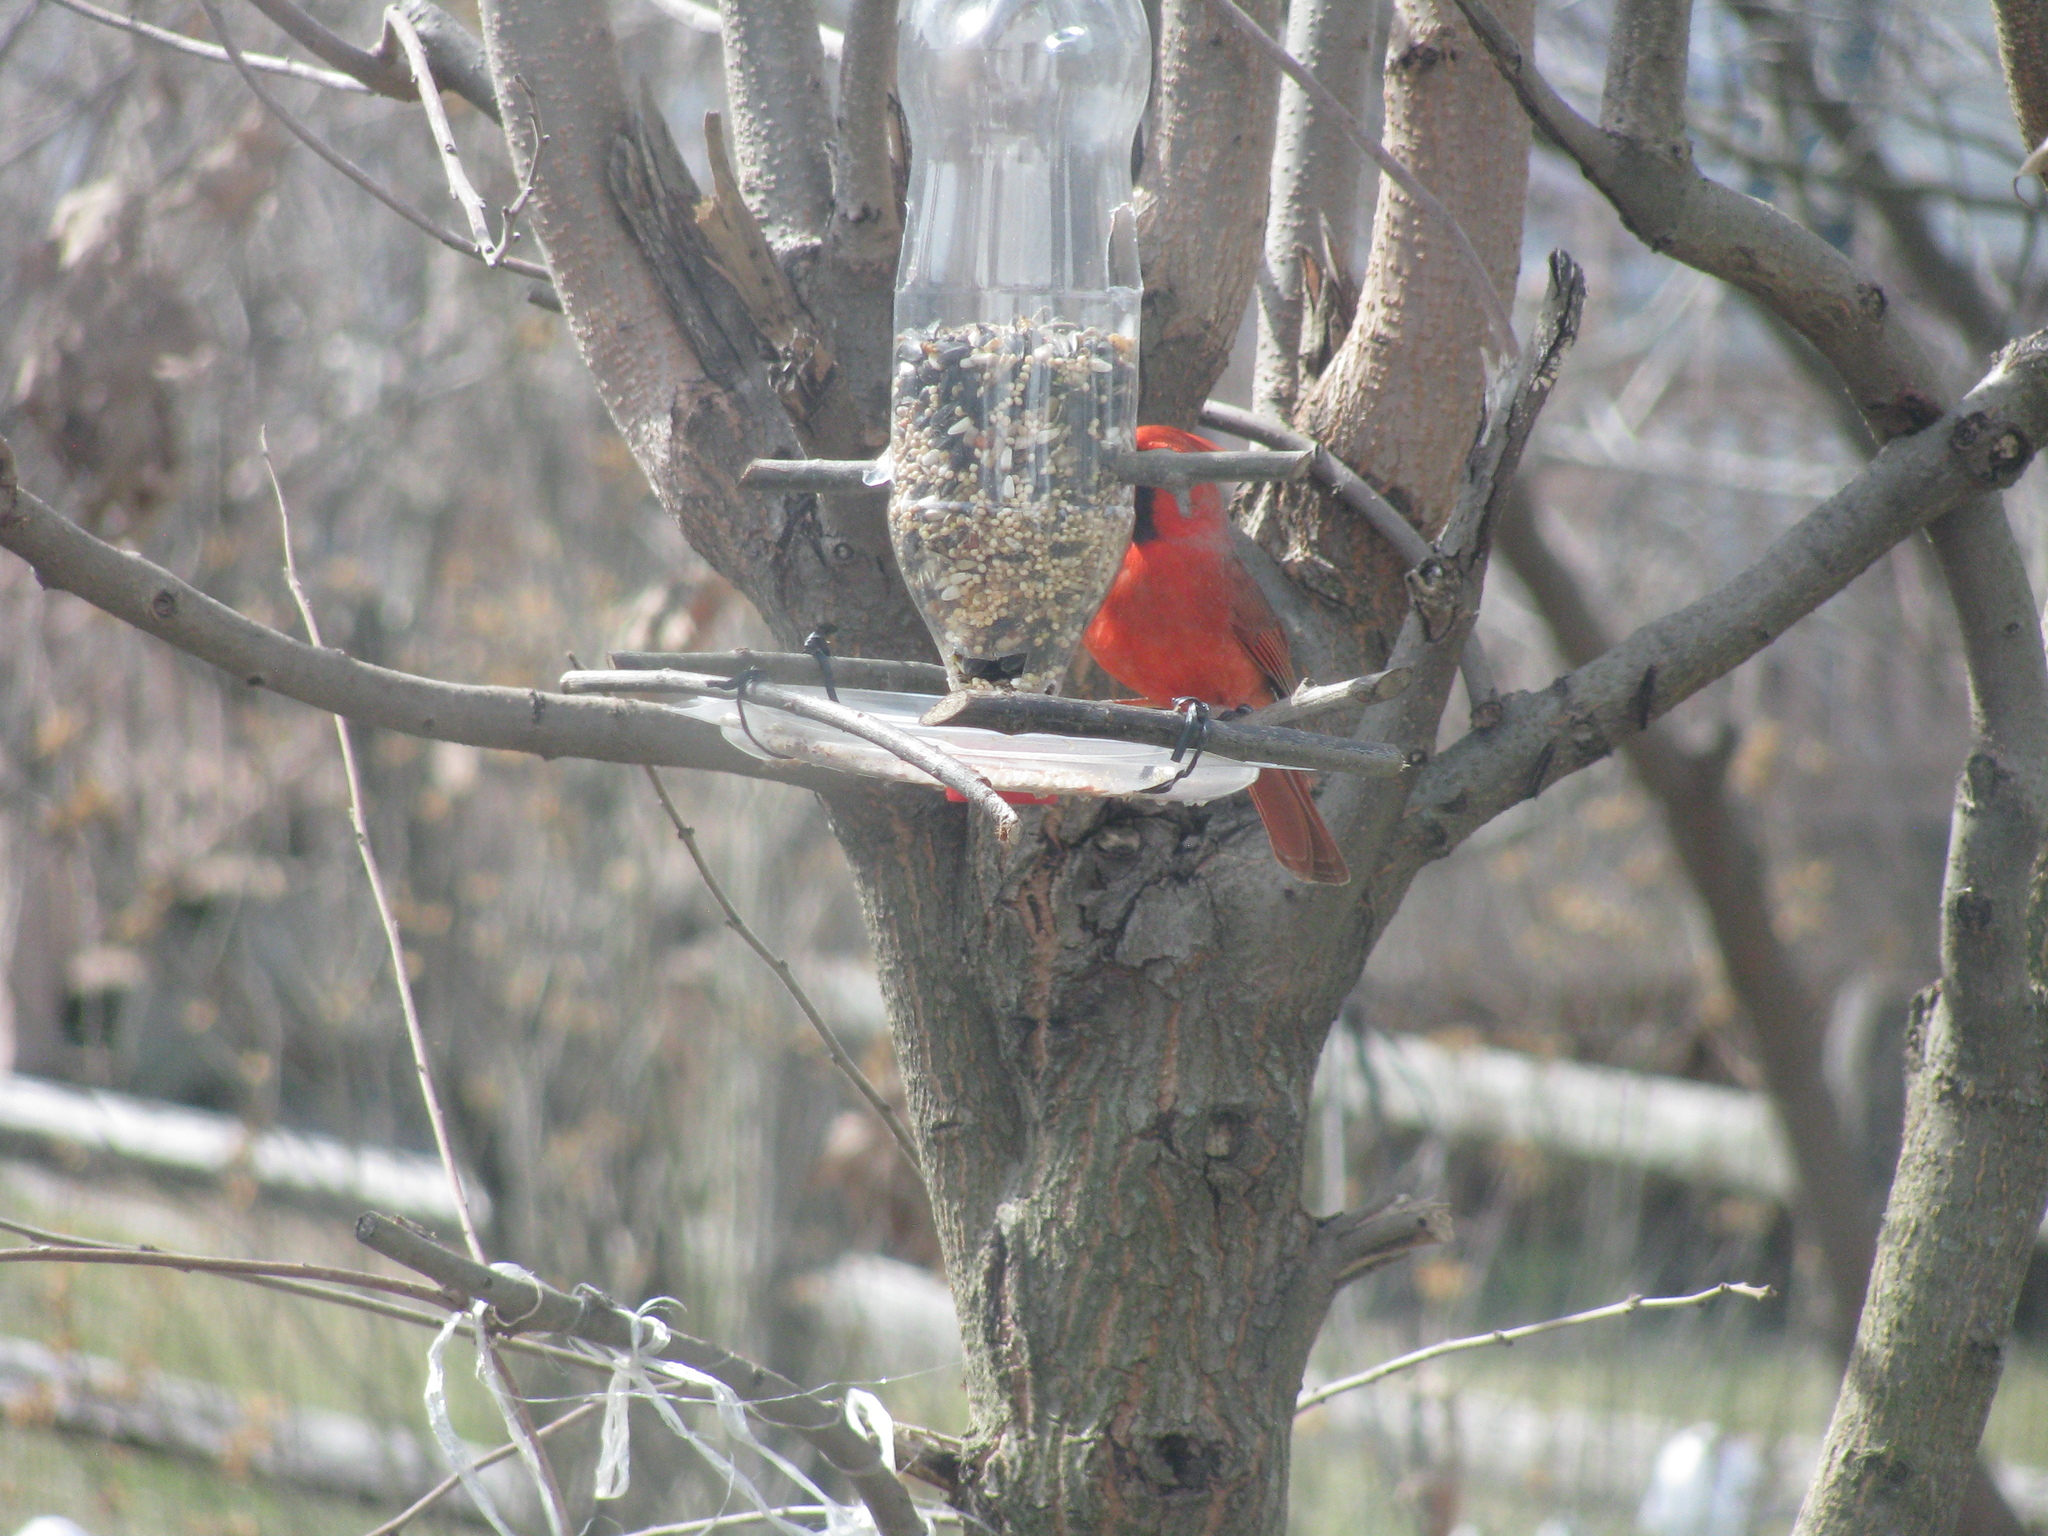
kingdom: Animalia
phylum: Chordata
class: Aves
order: Passeriformes
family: Cardinalidae
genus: Cardinalis
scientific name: Cardinalis cardinalis
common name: Northern cardinal
